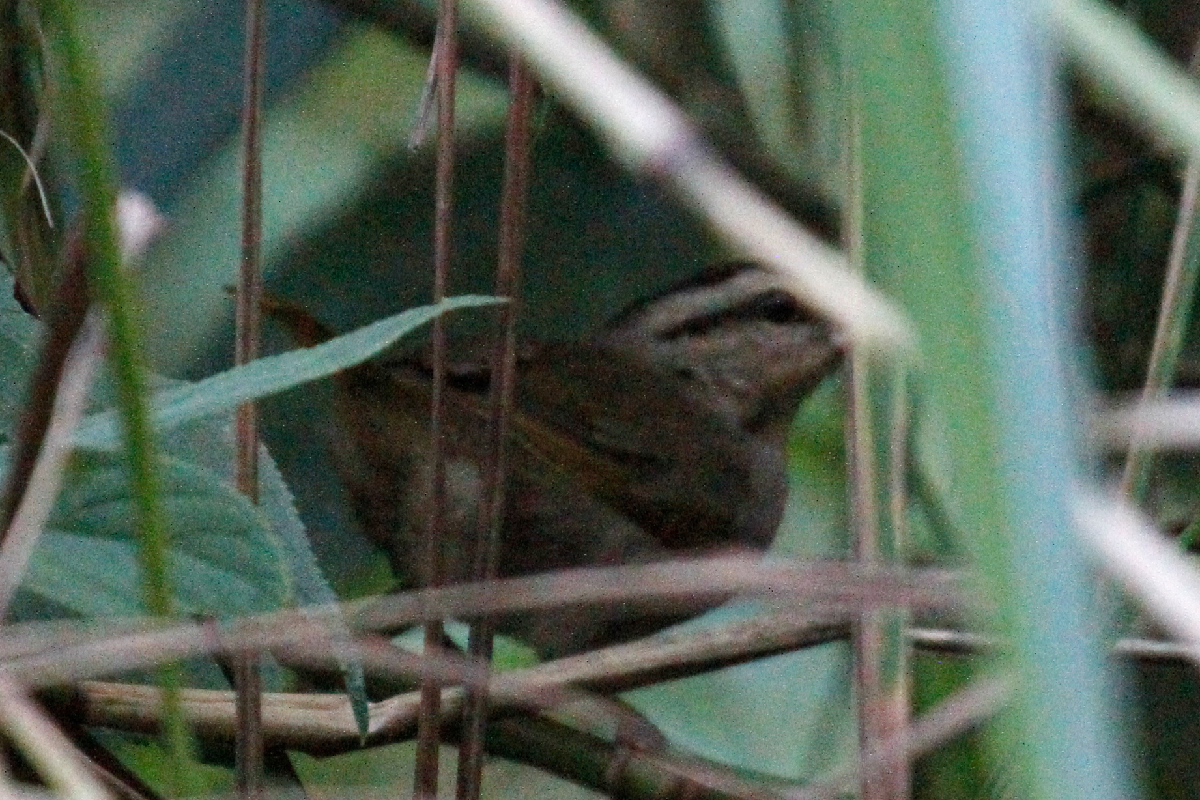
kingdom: Animalia
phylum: Chordata
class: Aves
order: Passeriformes
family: Passerellidae
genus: Arremonops
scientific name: Arremonops rufivirgatus
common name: Olive sparrow
